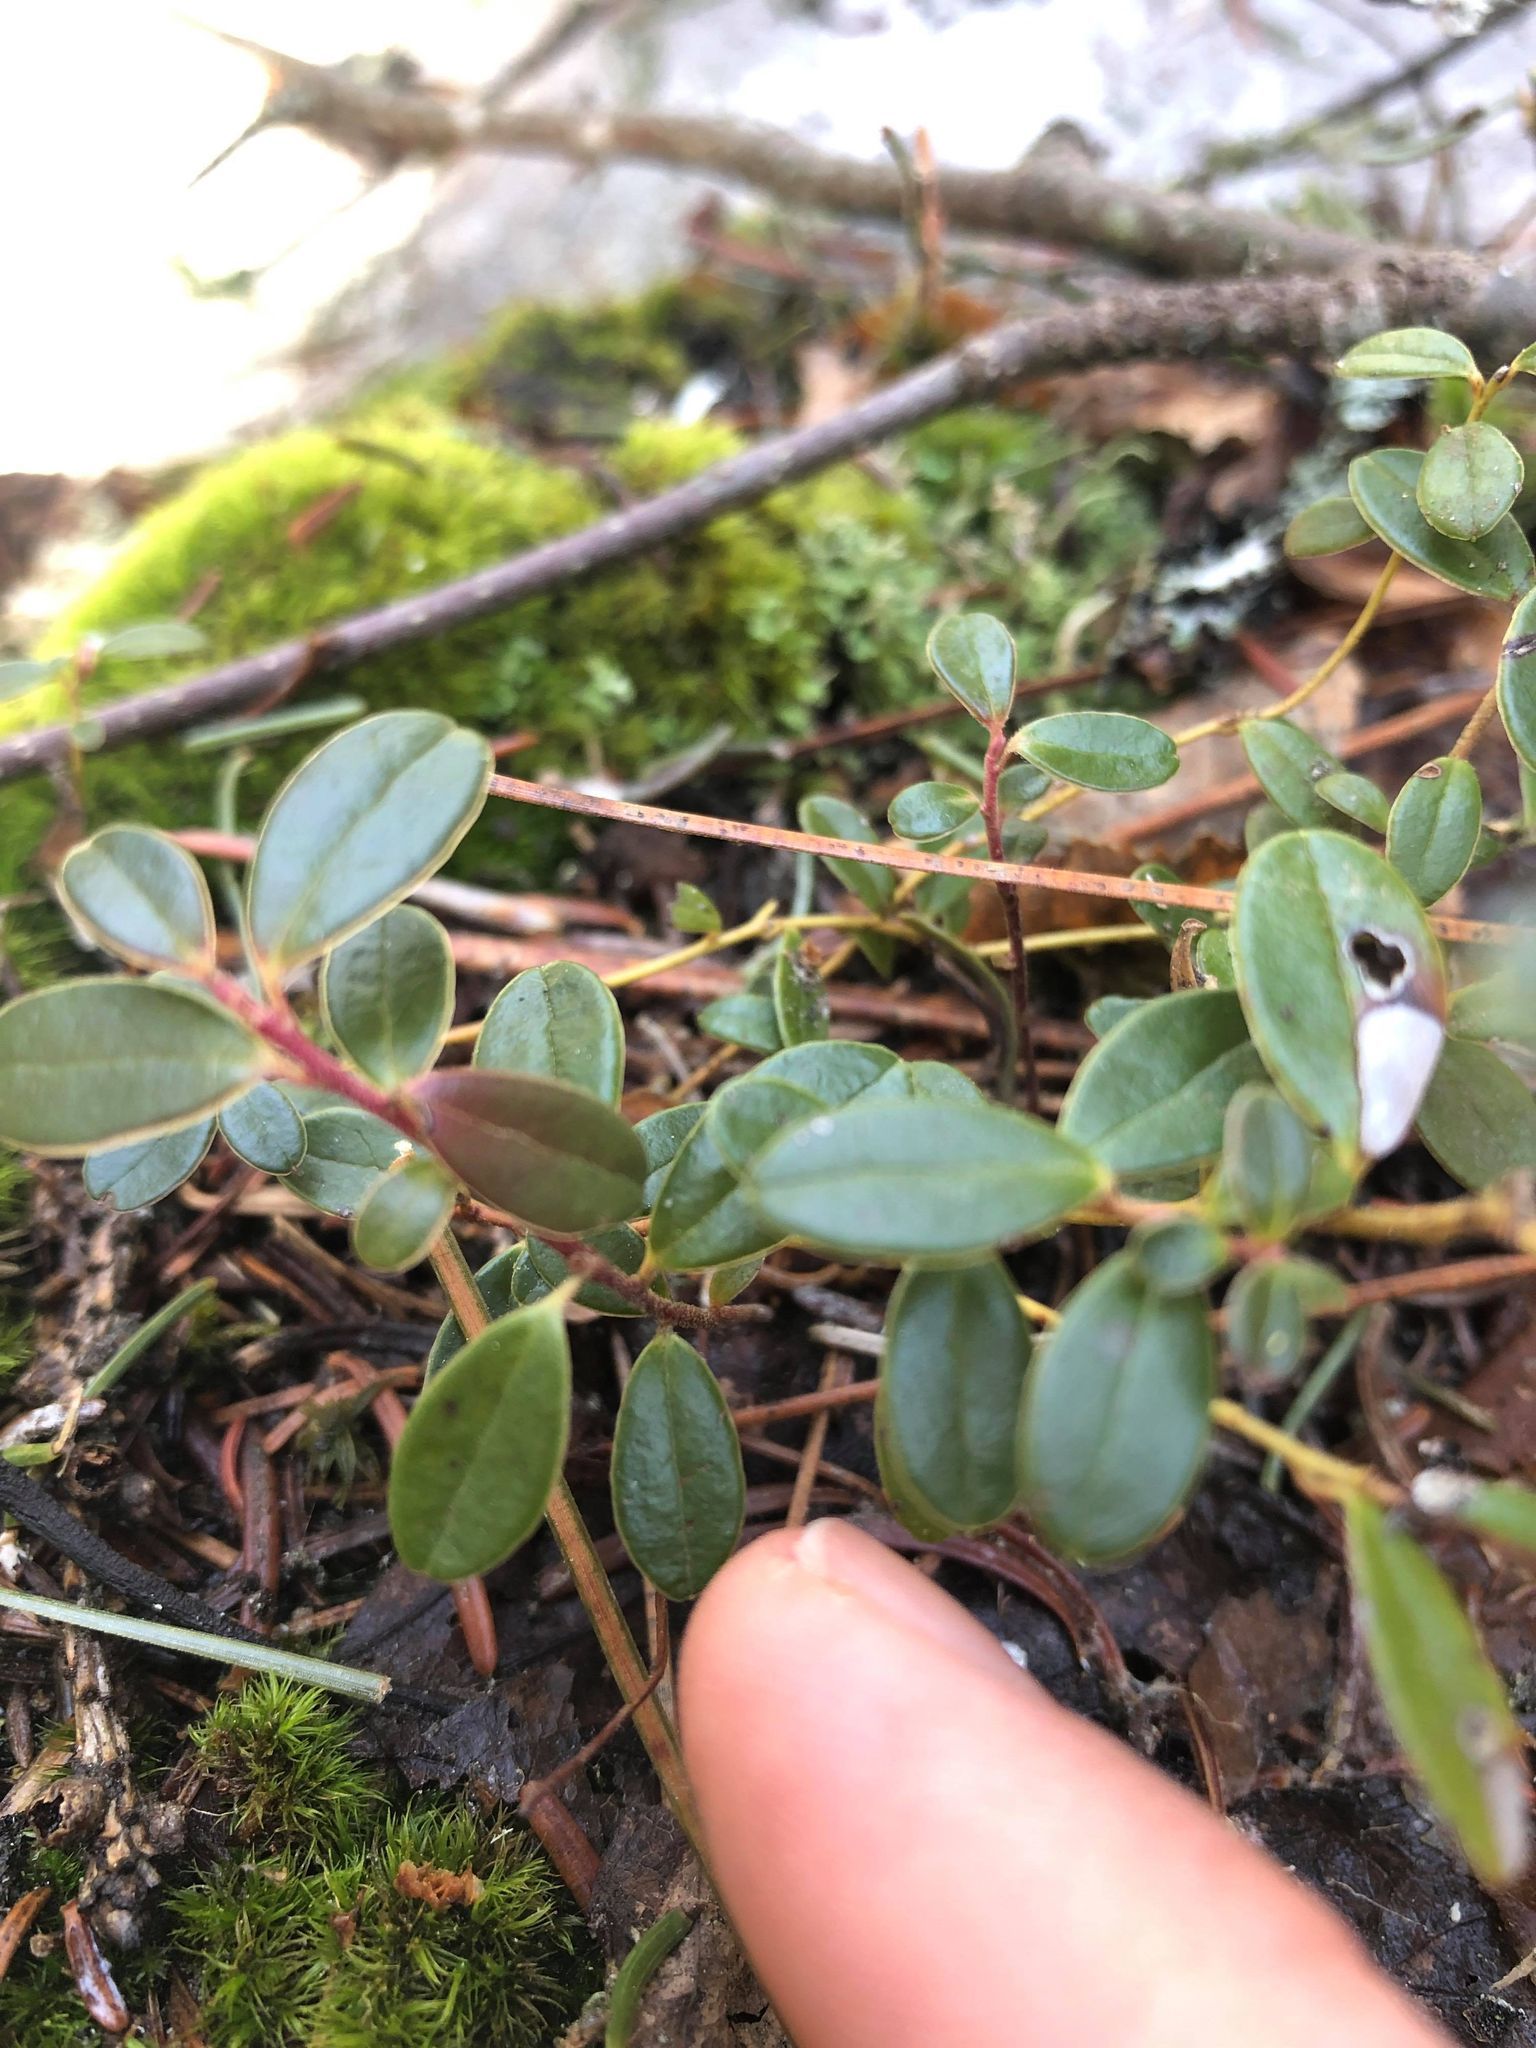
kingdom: Plantae
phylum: Tracheophyta
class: Magnoliopsida
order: Ericales
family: Ericaceae
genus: Vaccinium
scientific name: Vaccinium vitis-idaea
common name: Cowberry
